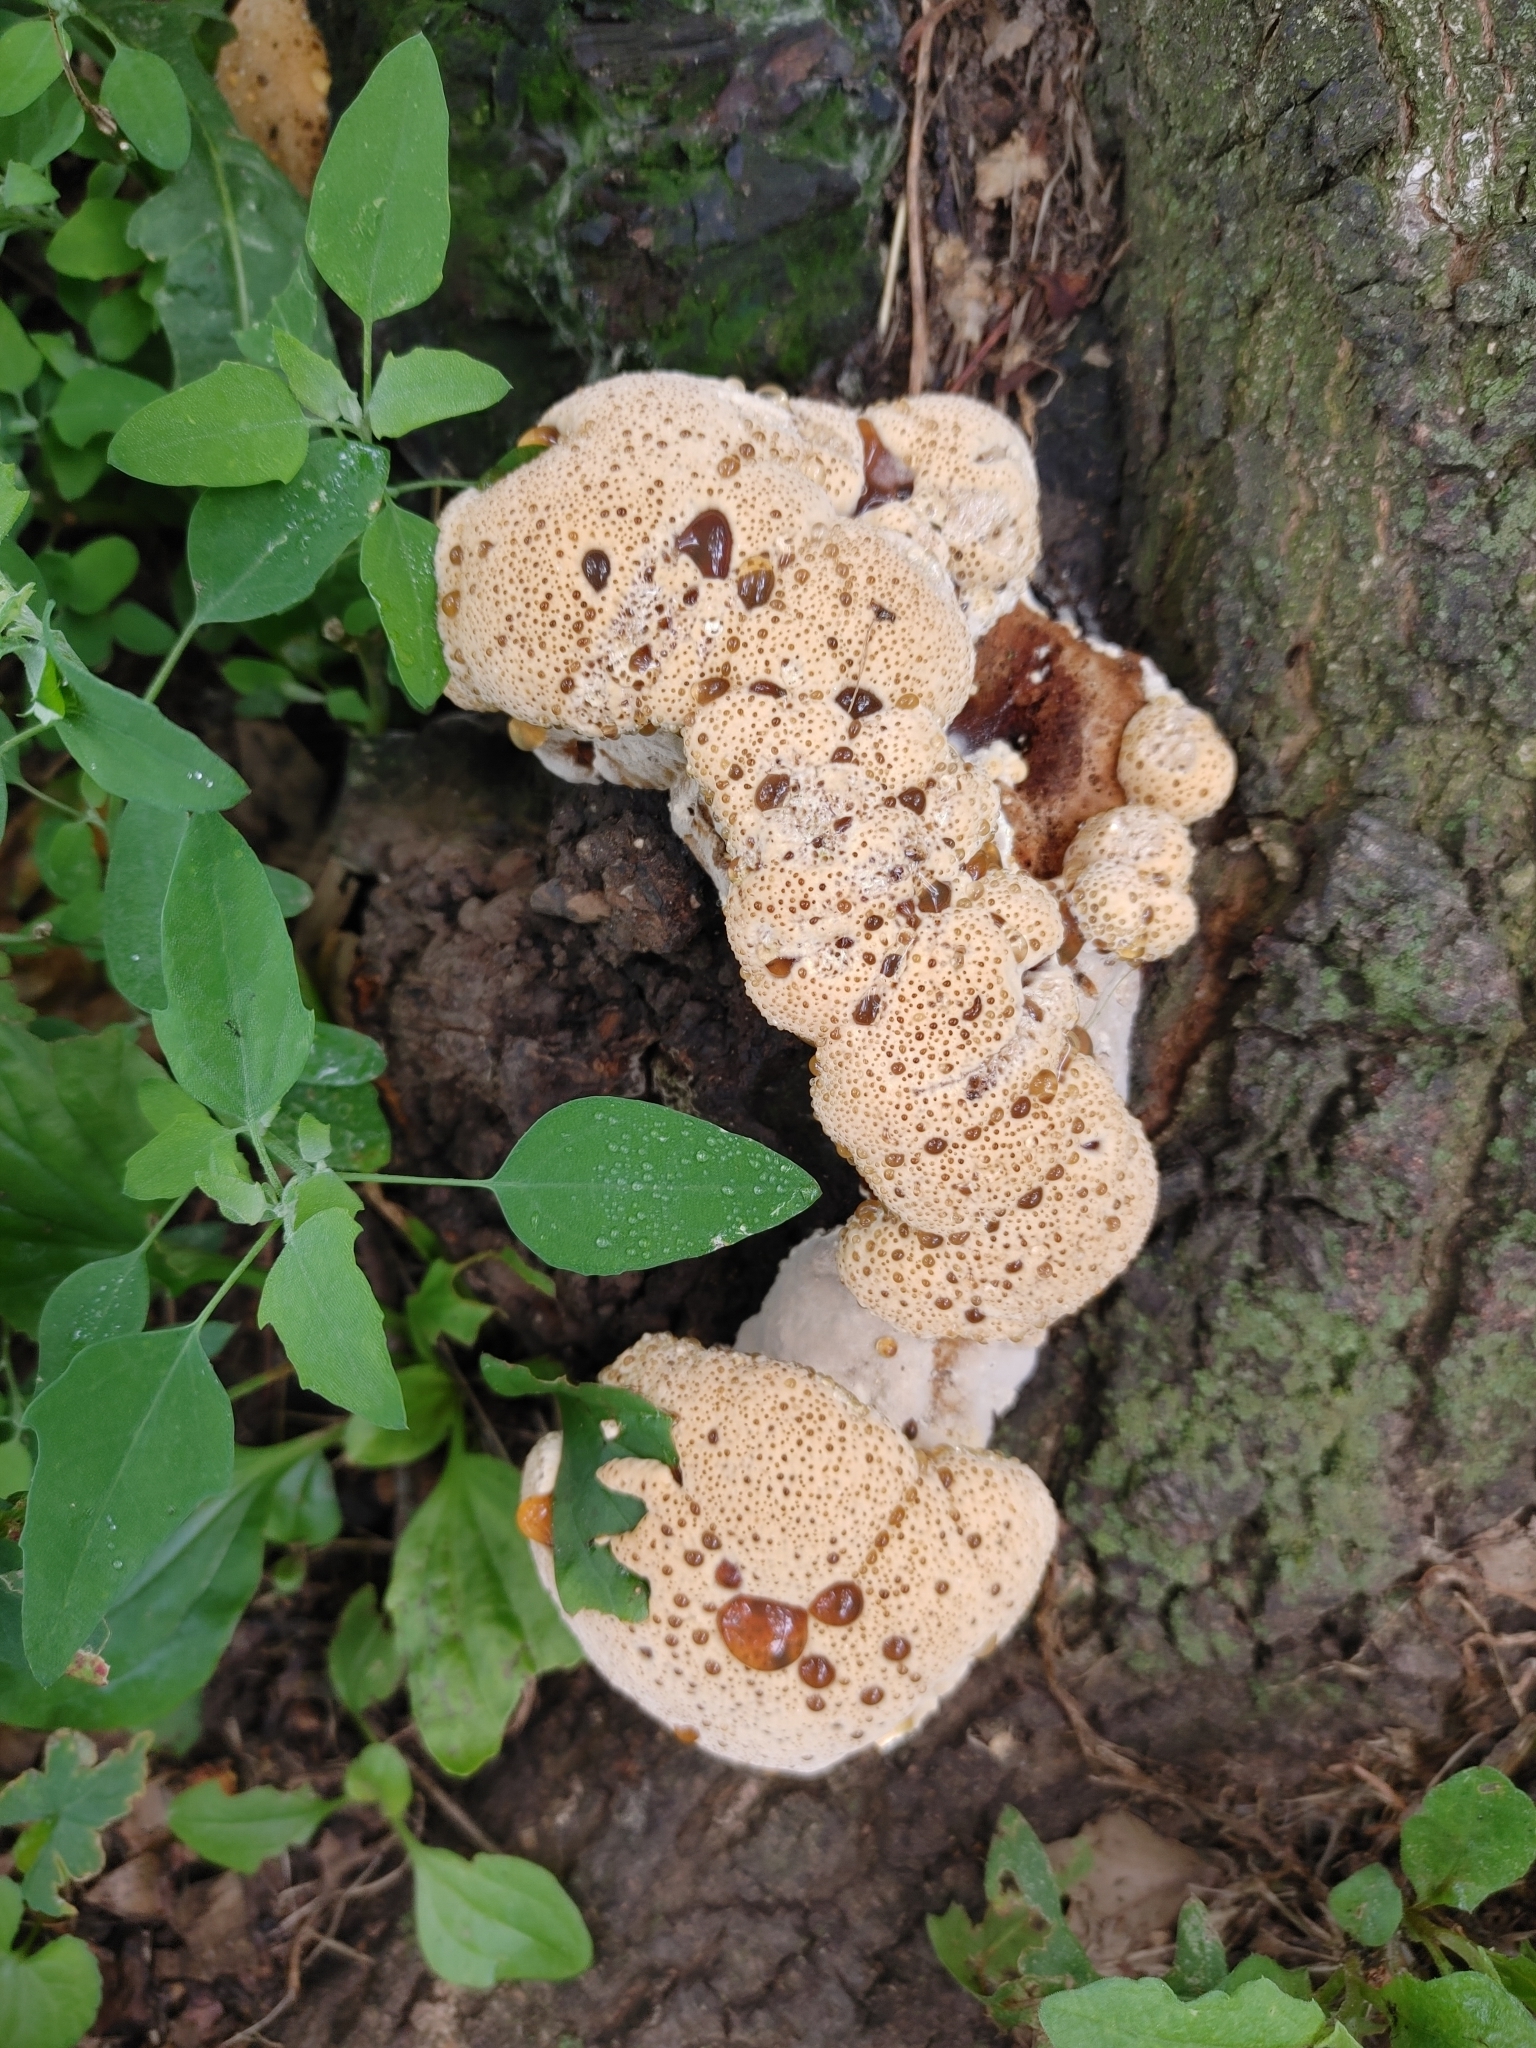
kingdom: Fungi
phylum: Basidiomycota
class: Agaricomycetes
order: Hymenochaetales
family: Hymenochaetaceae
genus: Pseudoinonotus
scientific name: Pseudoinonotus dryadeus
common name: Oak bracket
